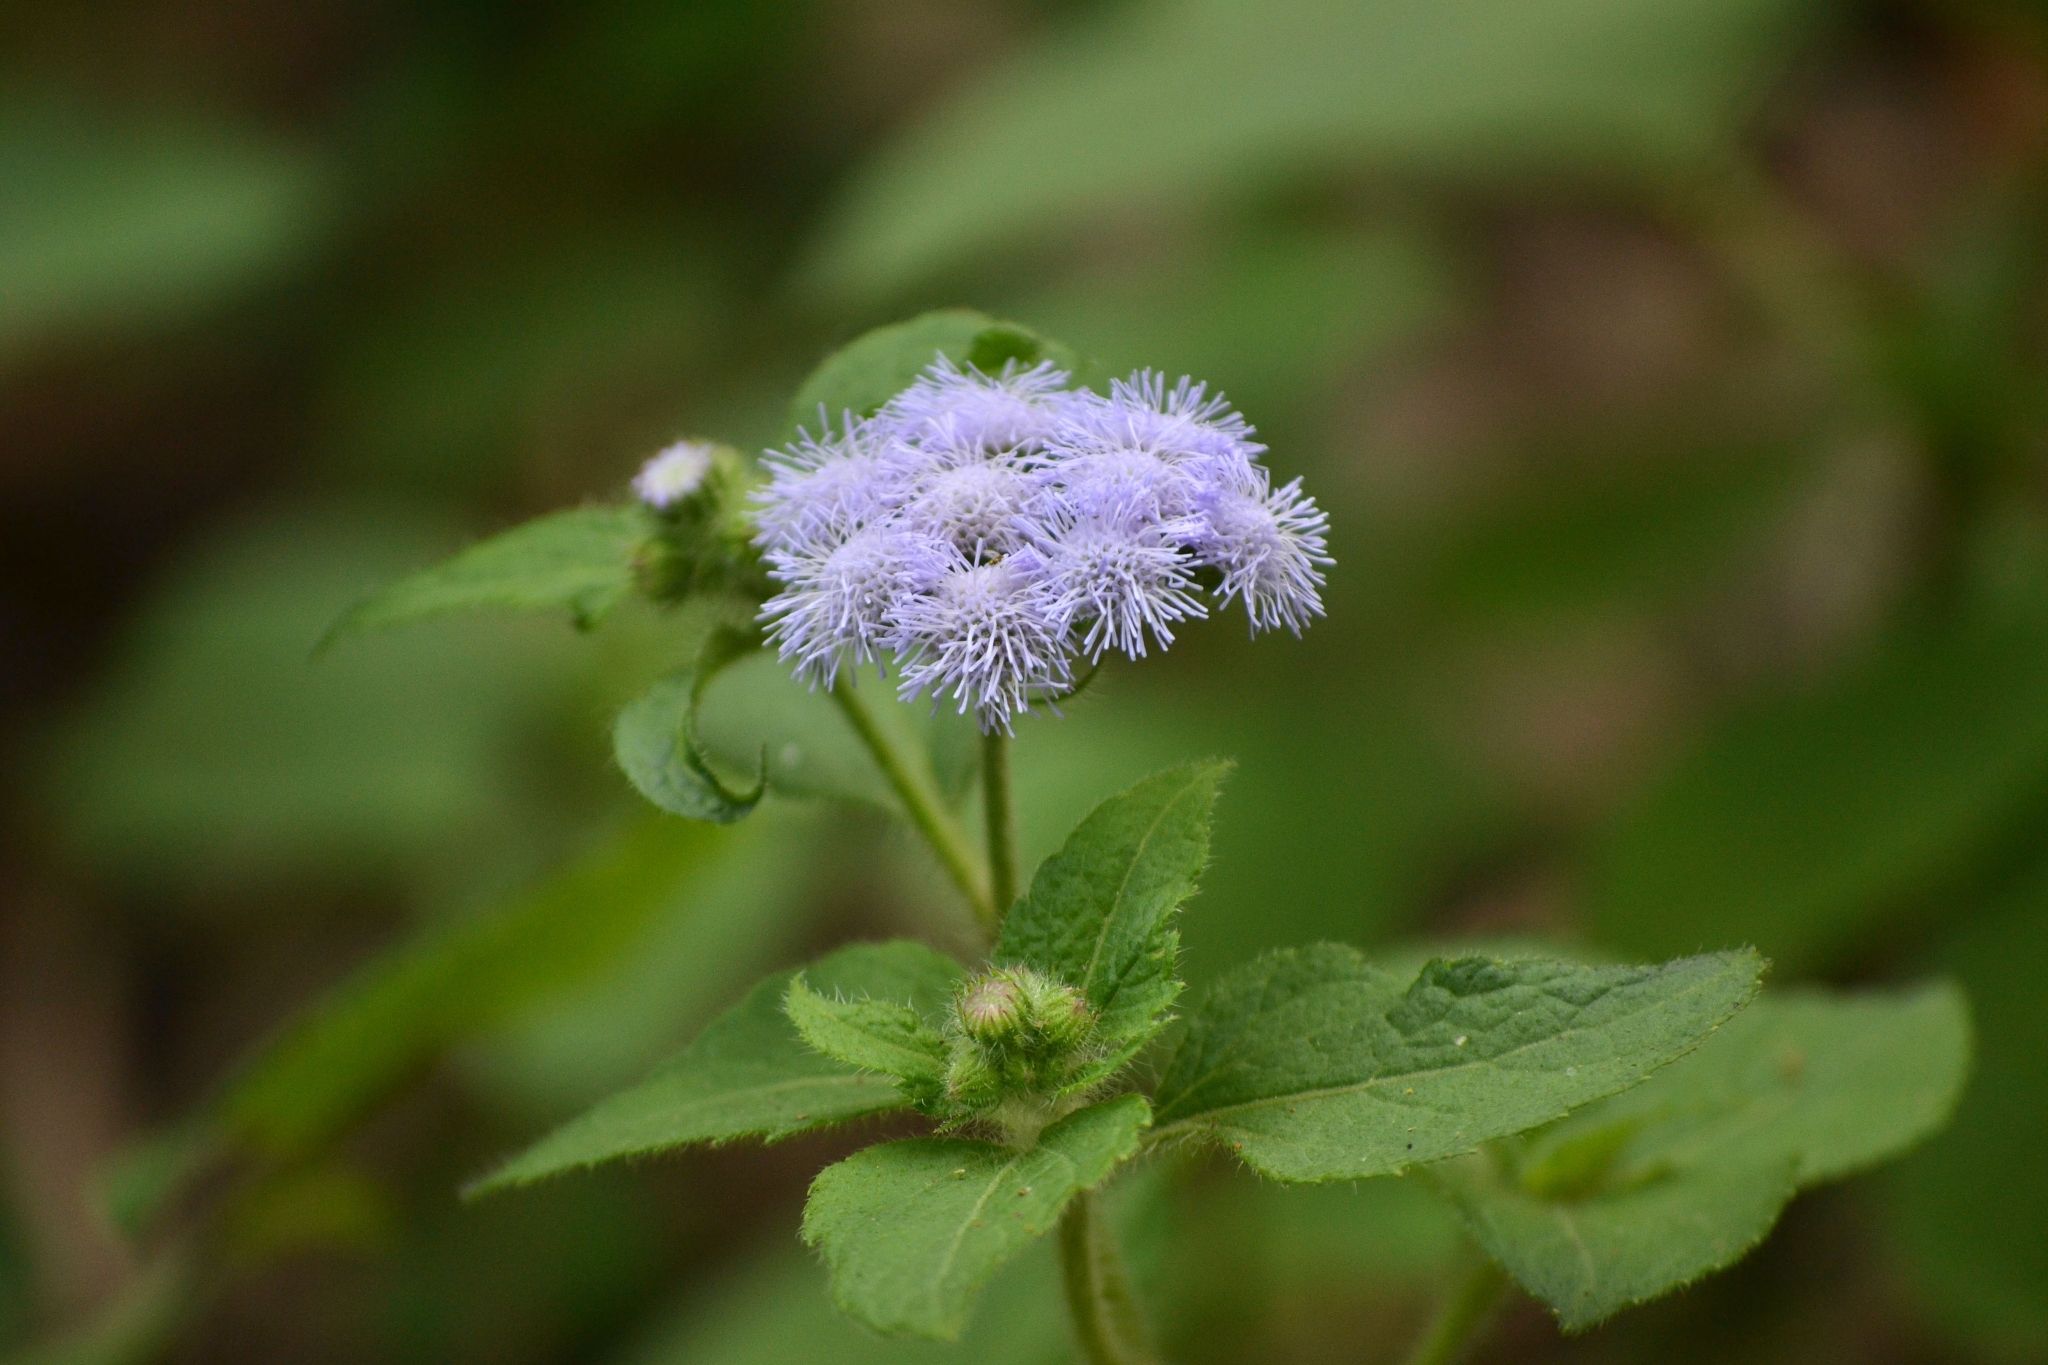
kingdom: Plantae
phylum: Tracheophyta
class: Magnoliopsida
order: Asterales
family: Asteraceae
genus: Ageratum
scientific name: Ageratum houstonianum
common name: Bluemink
